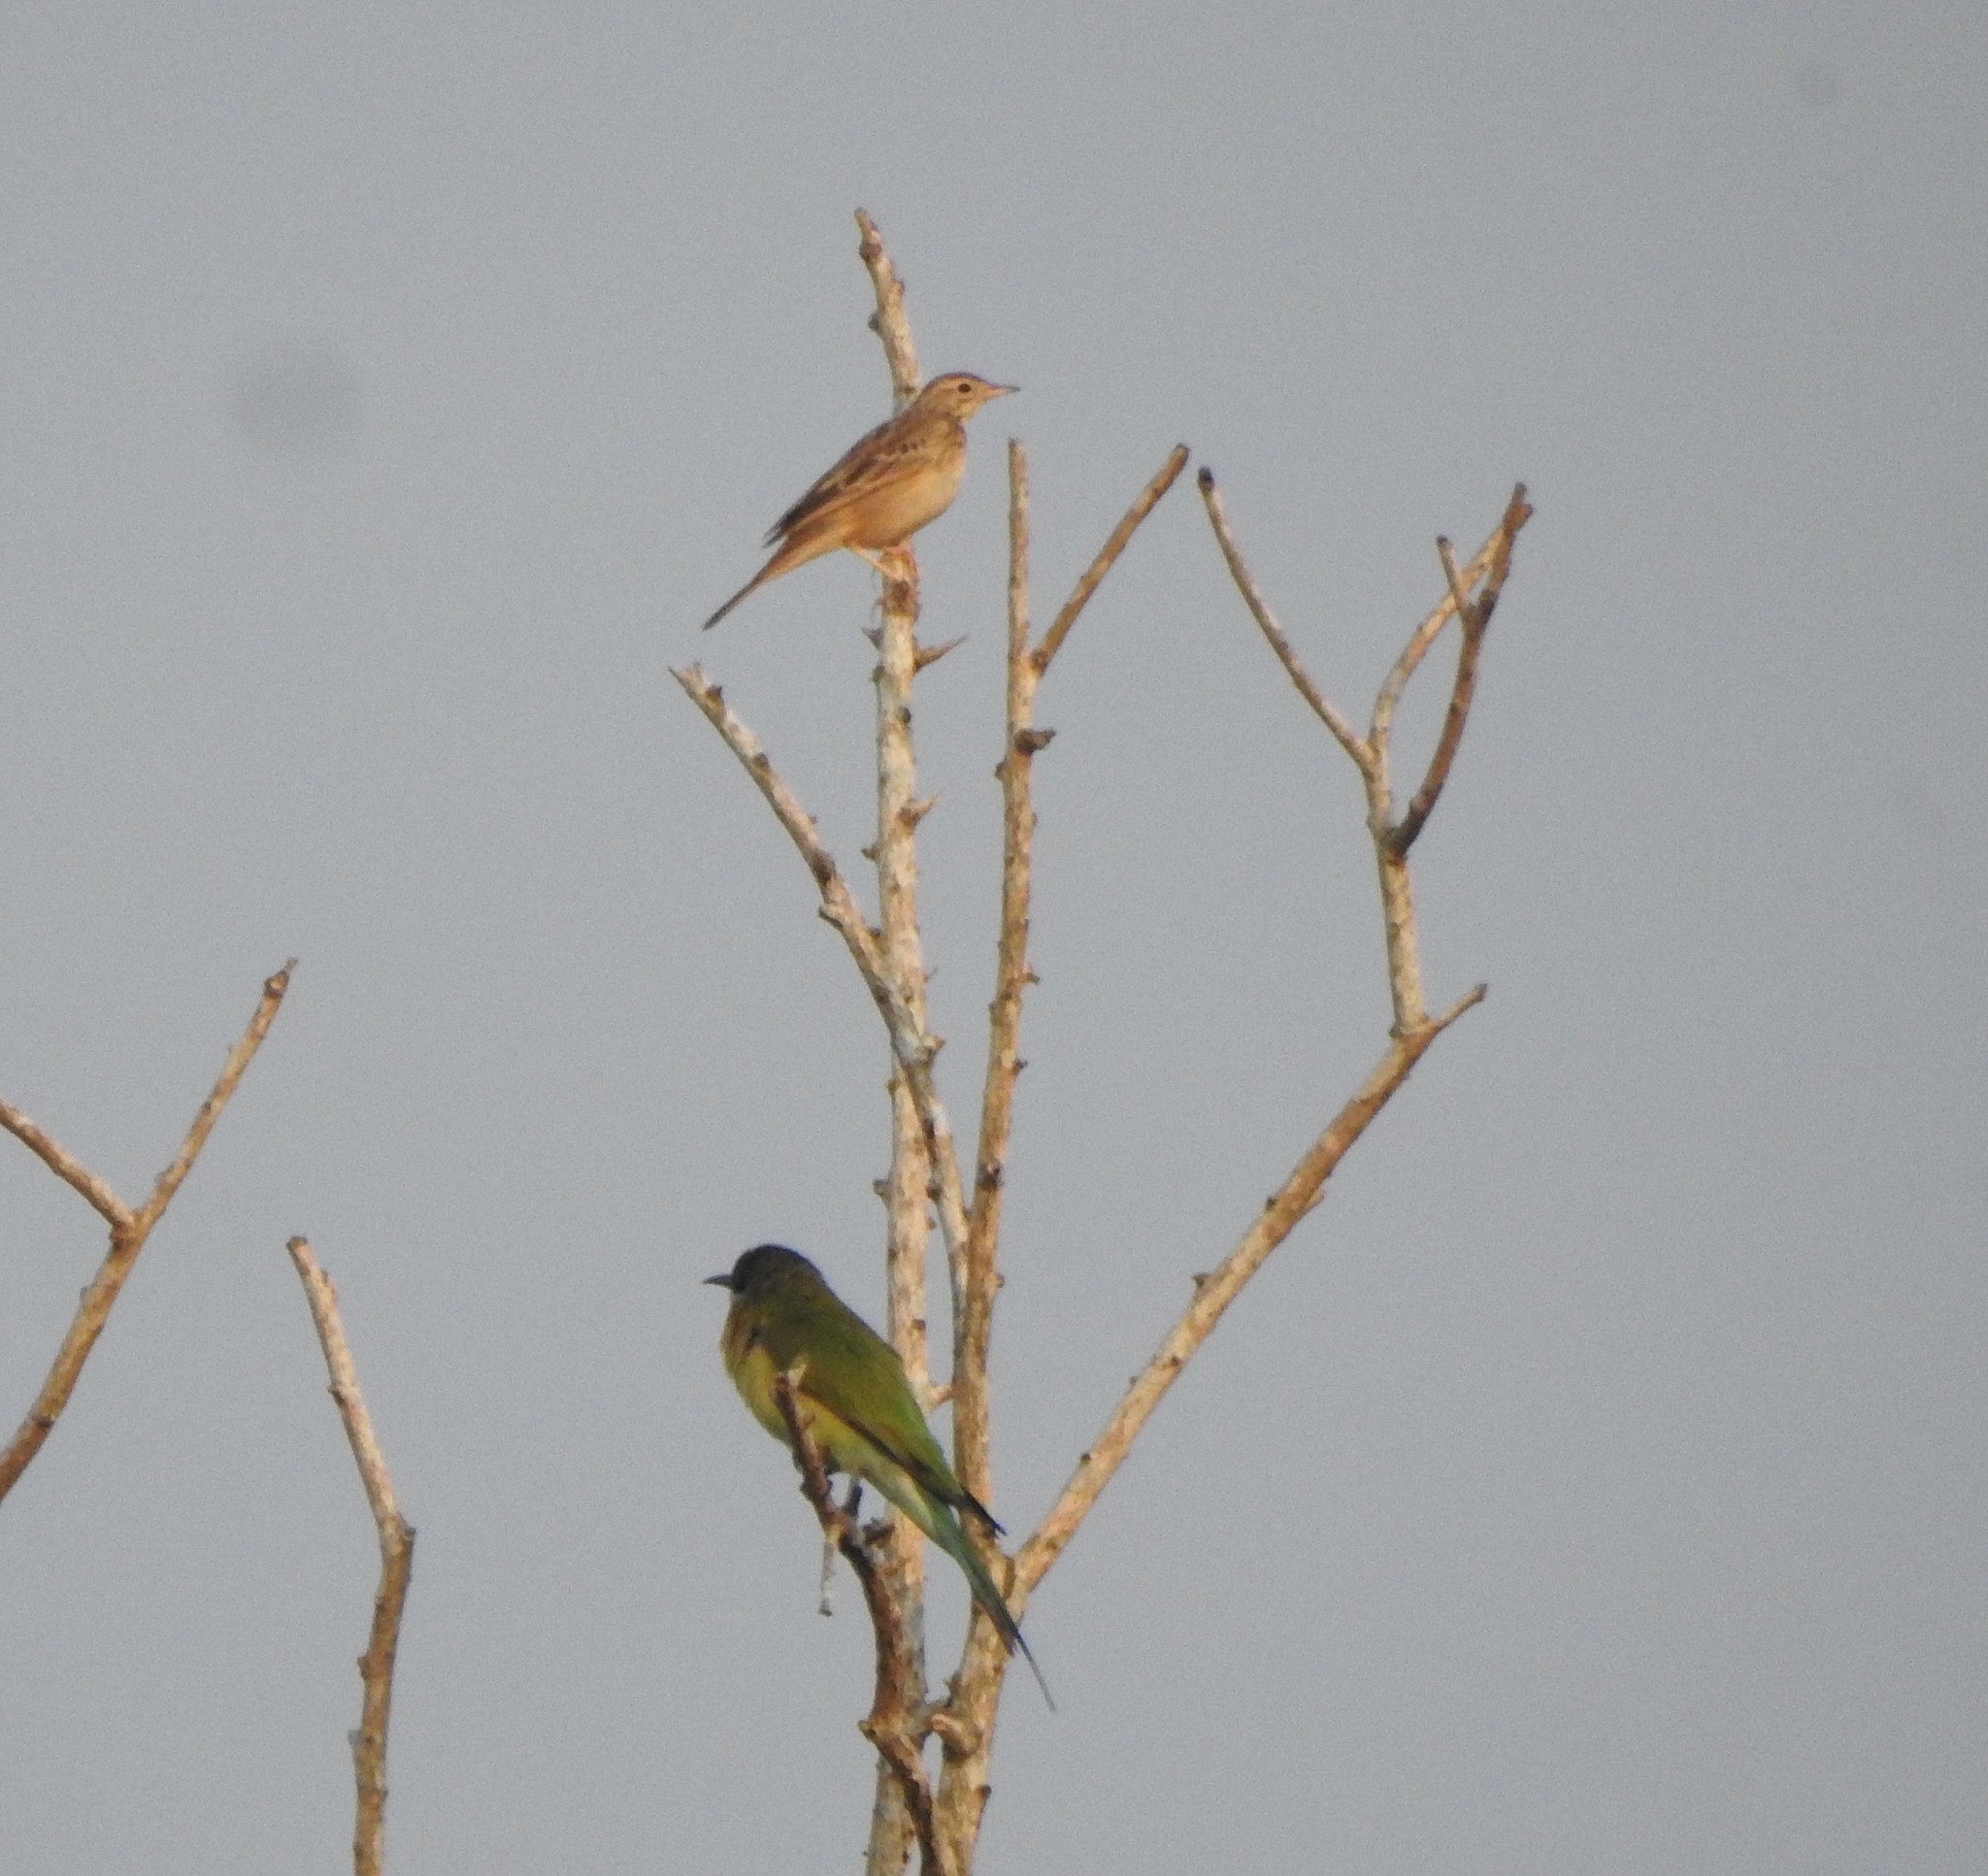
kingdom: Animalia
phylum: Chordata
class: Aves
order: Coraciiformes
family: Meropidae
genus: Merops
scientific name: Merops philippinus
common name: Blue-tailed bee-eater
